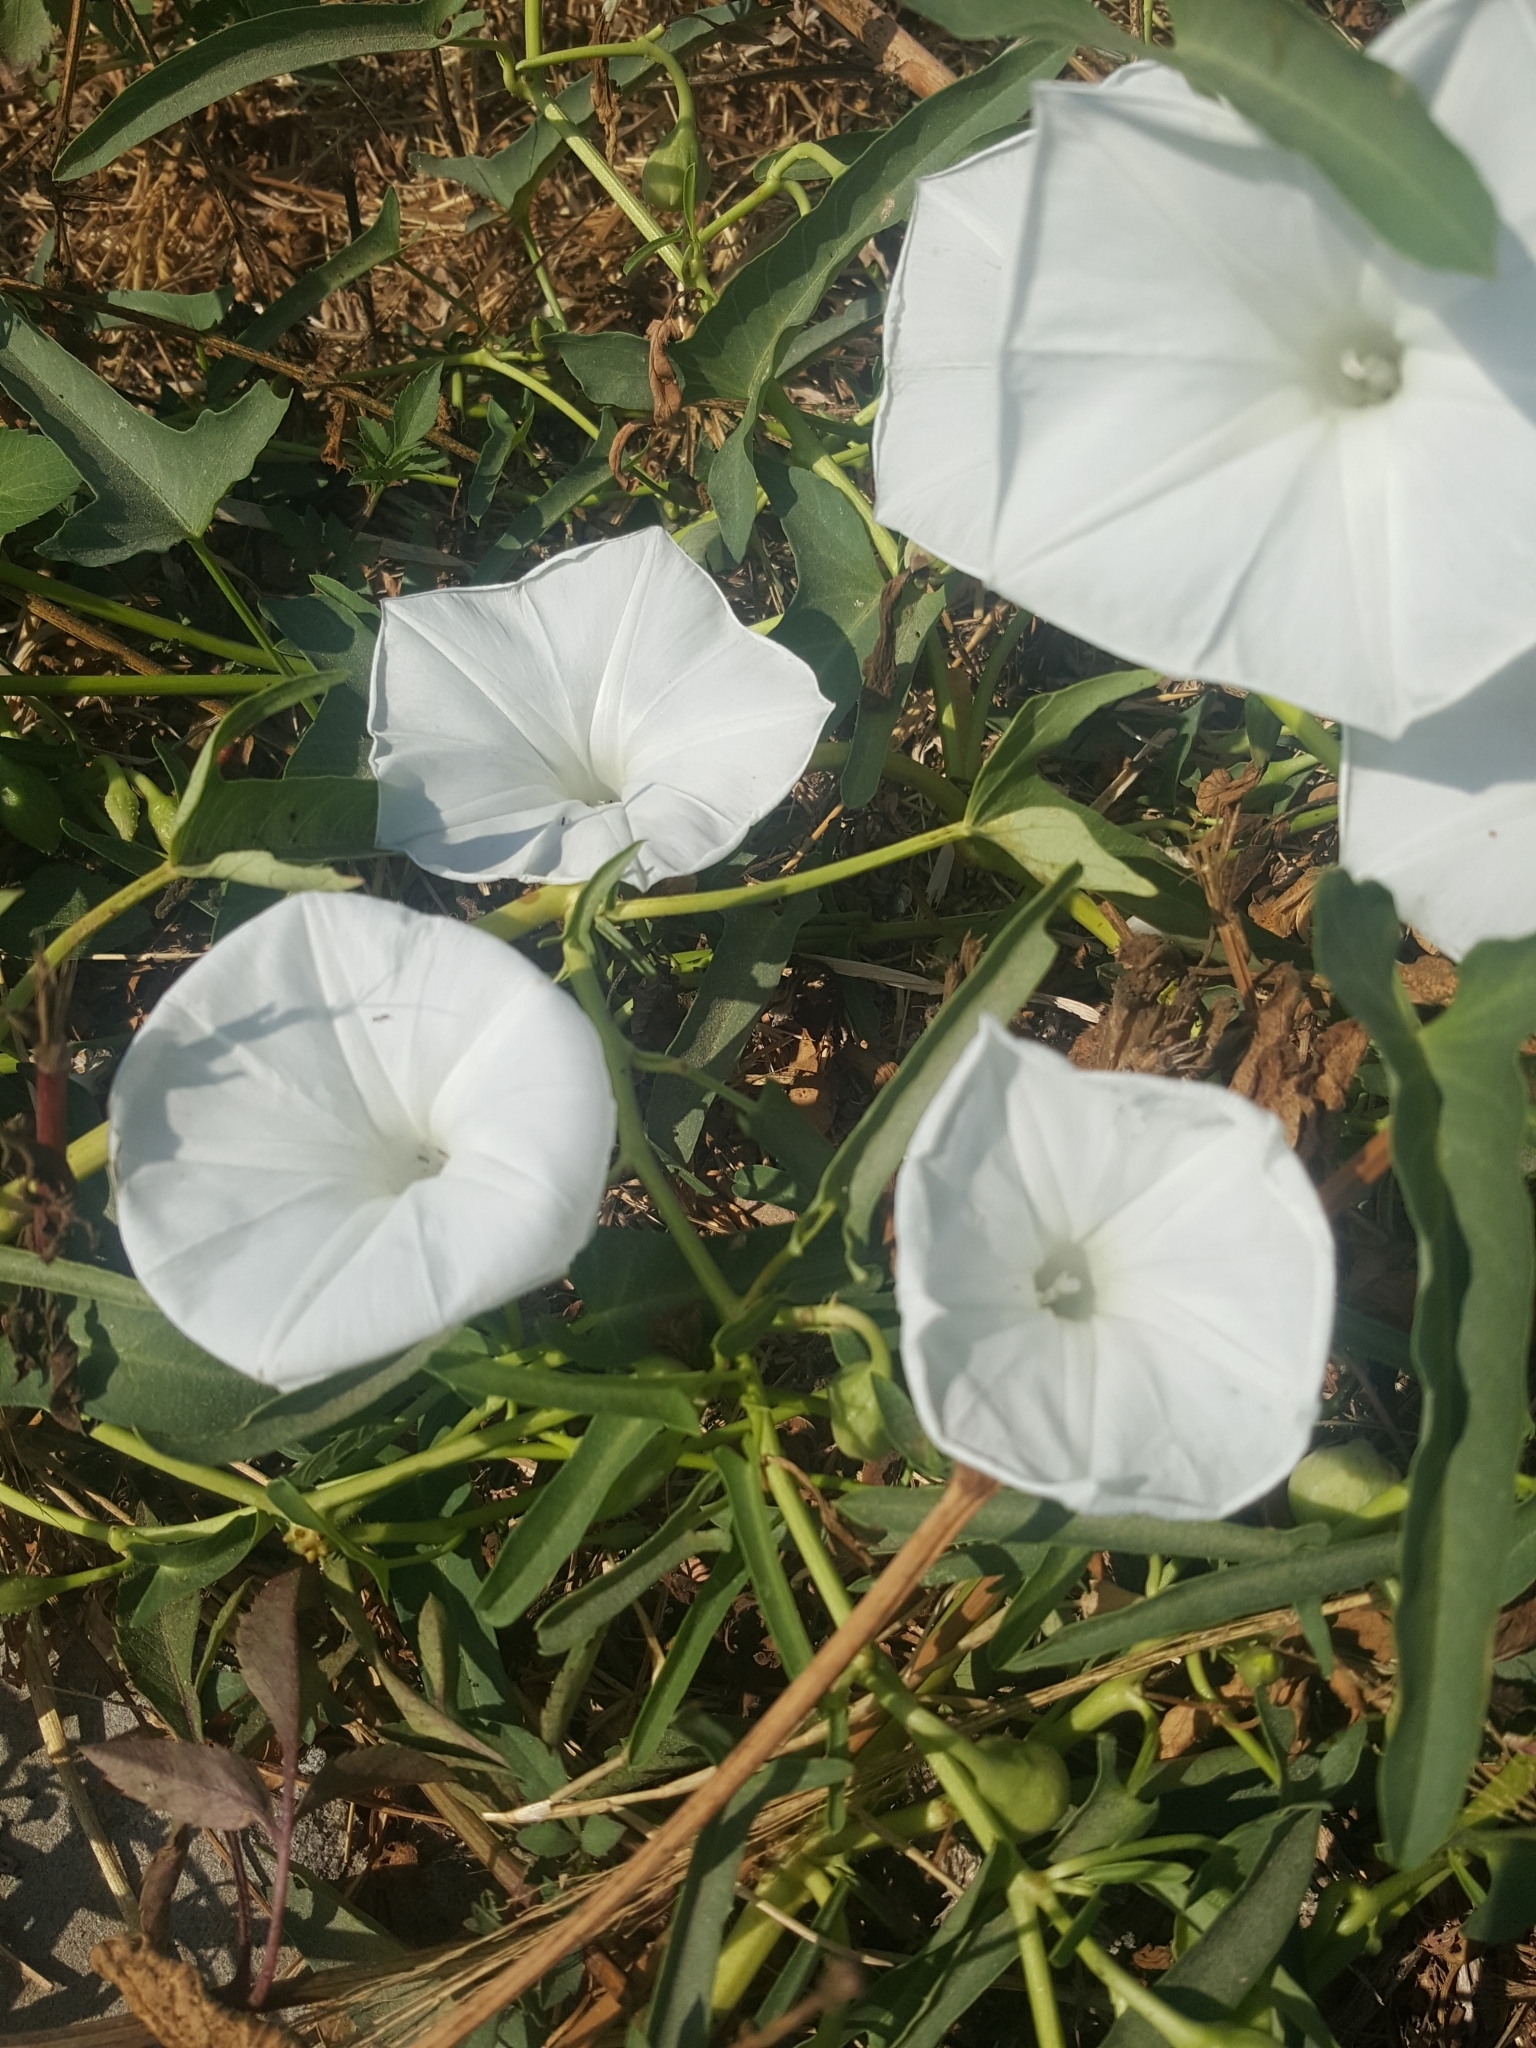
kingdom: Plantae
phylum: Tracheophyta
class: Magnoliopsida
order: Solanales
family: Convolvulaceae
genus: Ipomoea
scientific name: Ipomoea aquatica
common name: Swamp morning-glory
